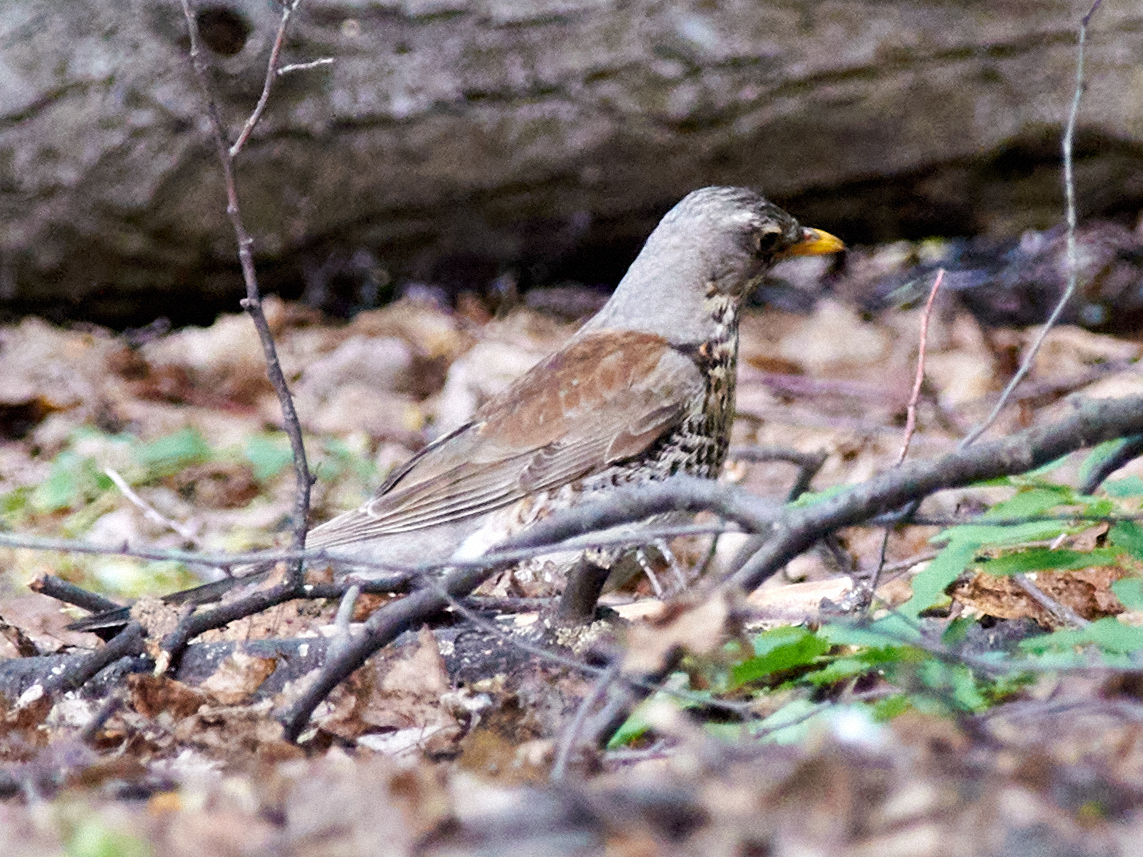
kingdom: Animalia
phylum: Chordata
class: Aves
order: Passeriformes
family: Turdidae
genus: Turdus
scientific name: Turdus pilaris
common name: Fieldfare
